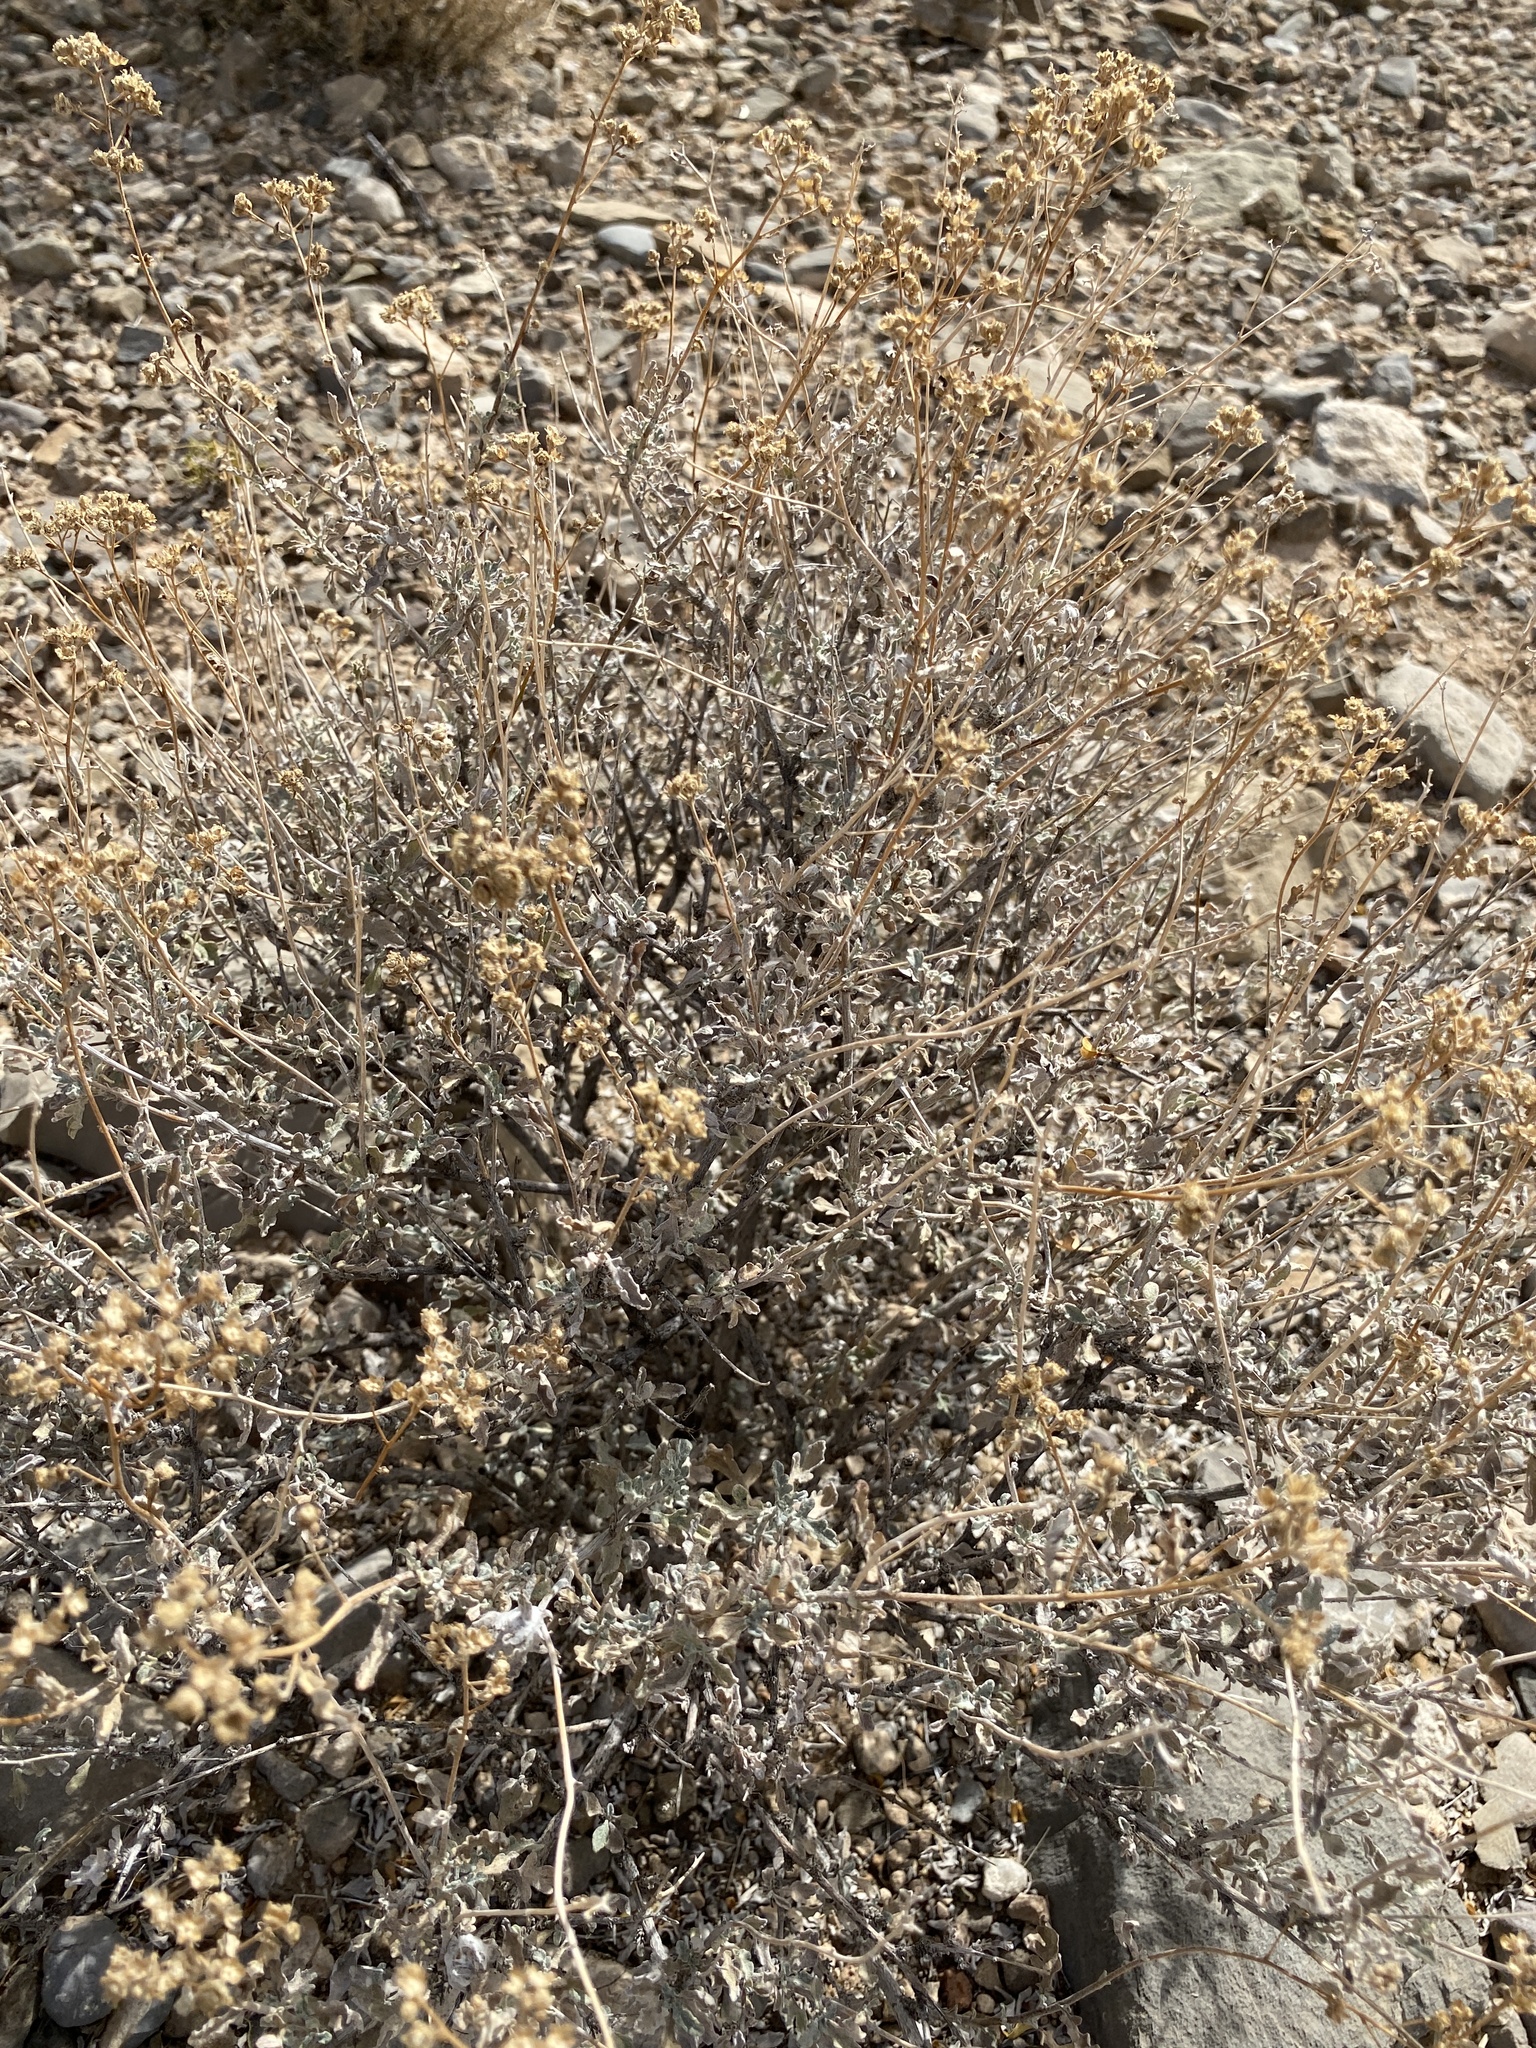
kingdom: Plantae
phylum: Tracheophyta
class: Magnoliopsida
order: Asterales
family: Asteraceae
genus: Parthenium
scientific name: Parthenium incanum
